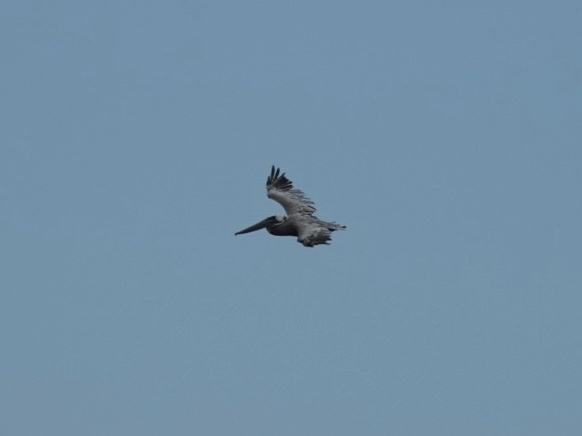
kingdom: Animalia
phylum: Chordata
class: Aves
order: Pelecaniformes
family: Pelecanidae
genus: Pelecanus
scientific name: Pelecanus occidentalis
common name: Brown pelican
